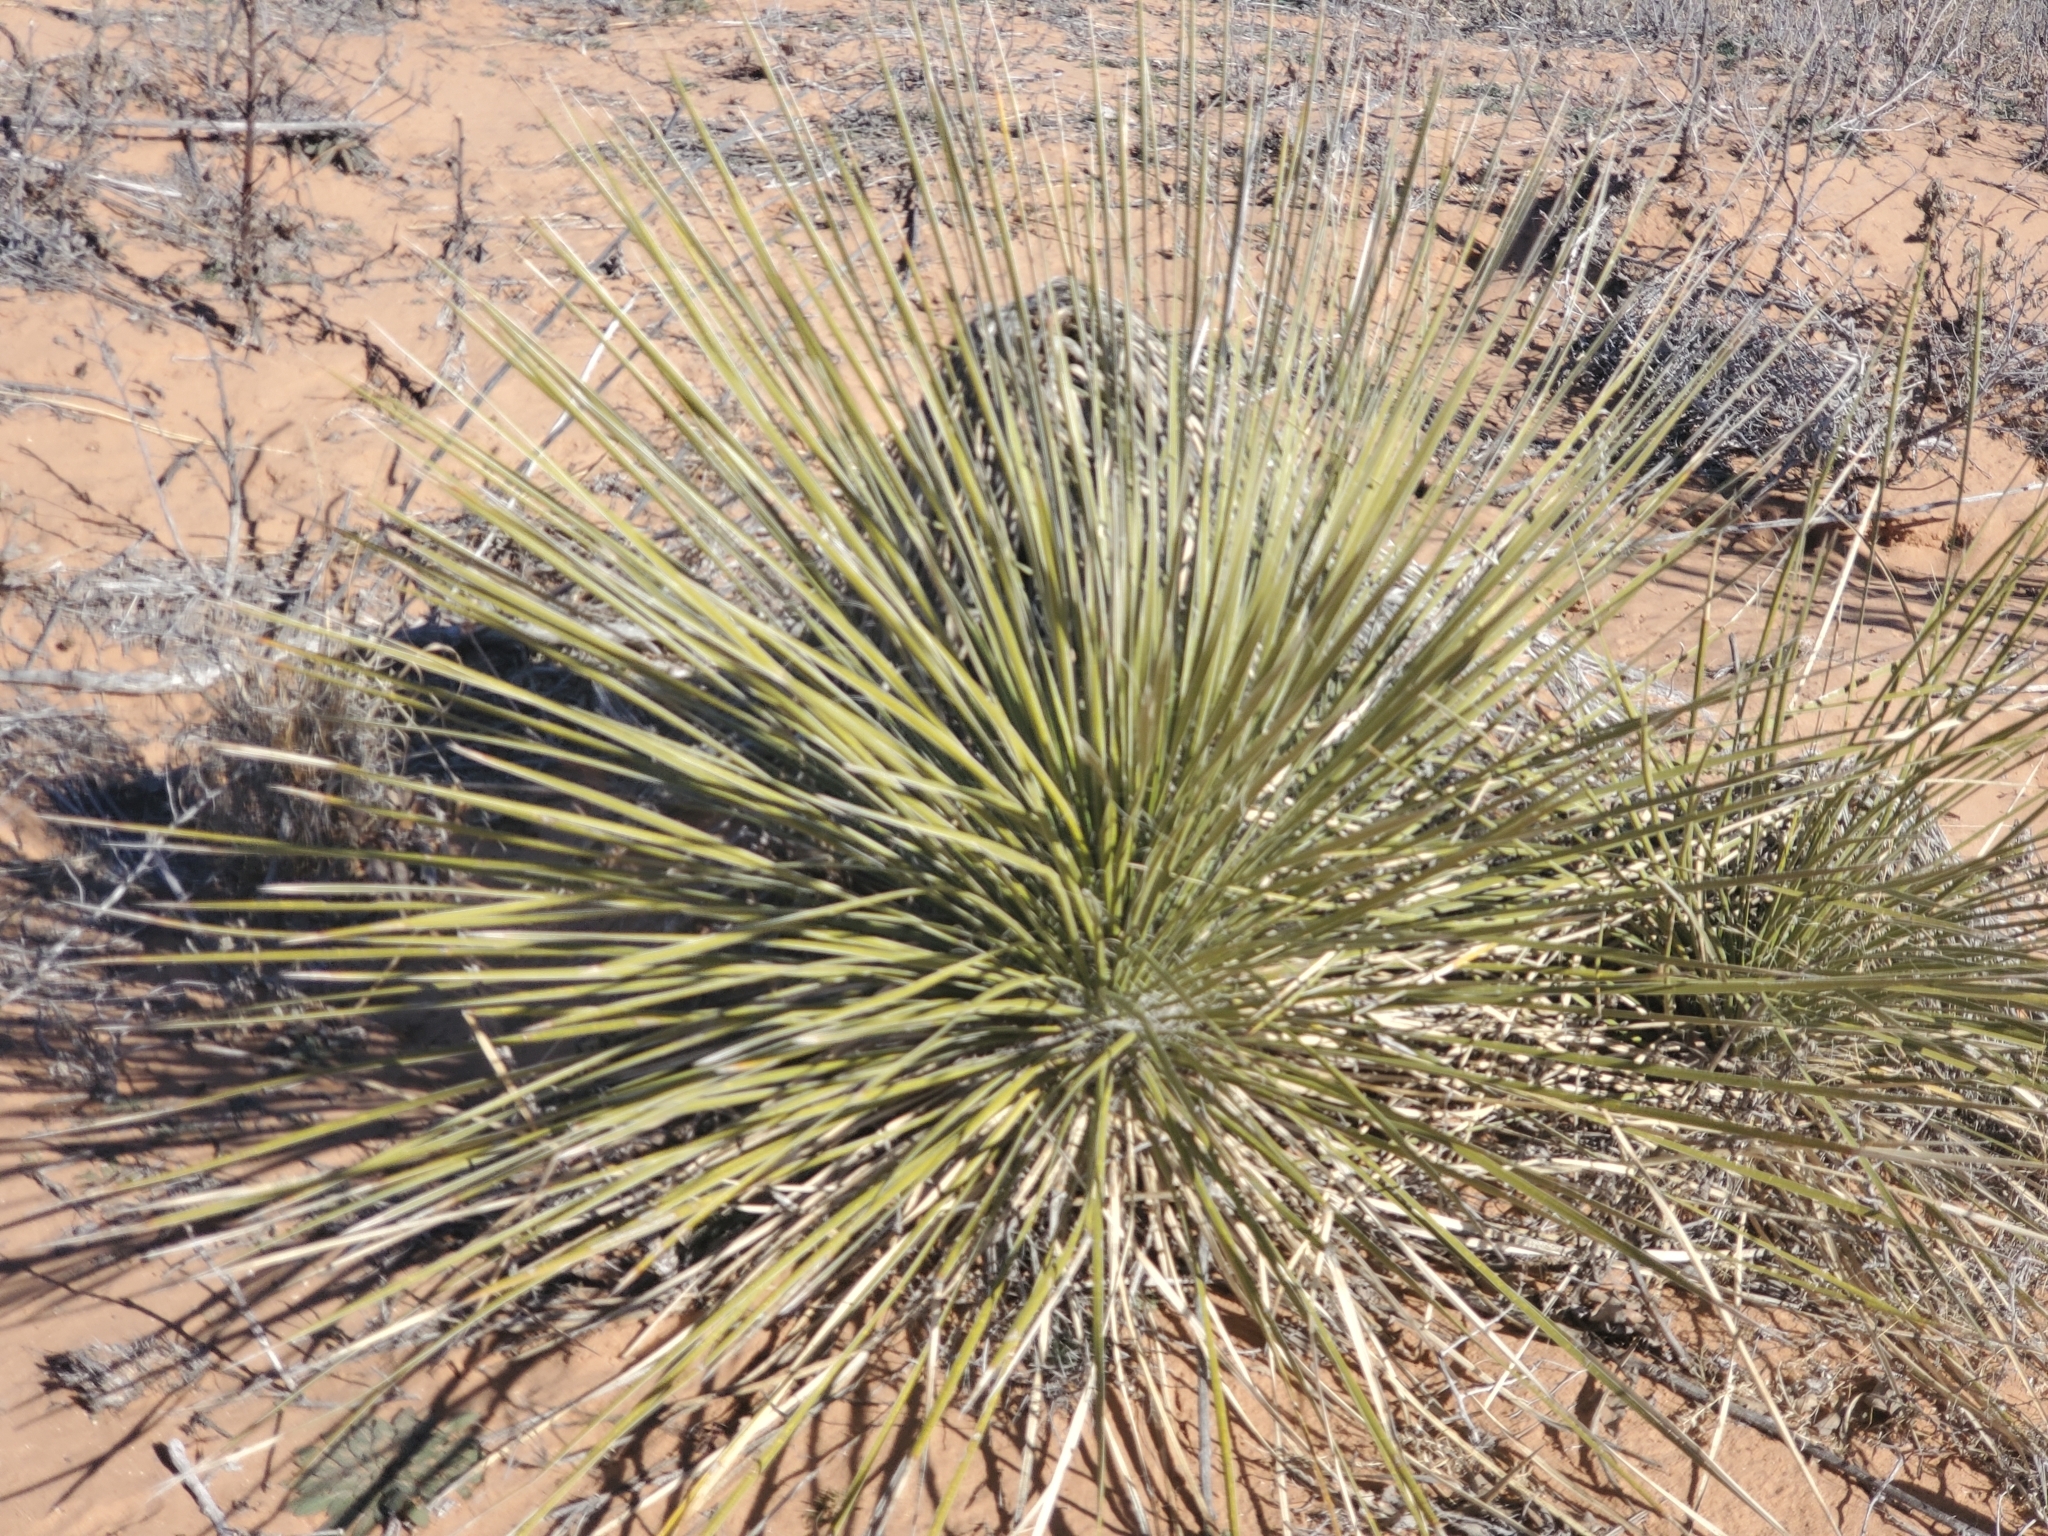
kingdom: Plantae
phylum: Tracheophyta
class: Liliopsida
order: Asparagales
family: Asparagaceae
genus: Yucca
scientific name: Yucca elata
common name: Palmella
